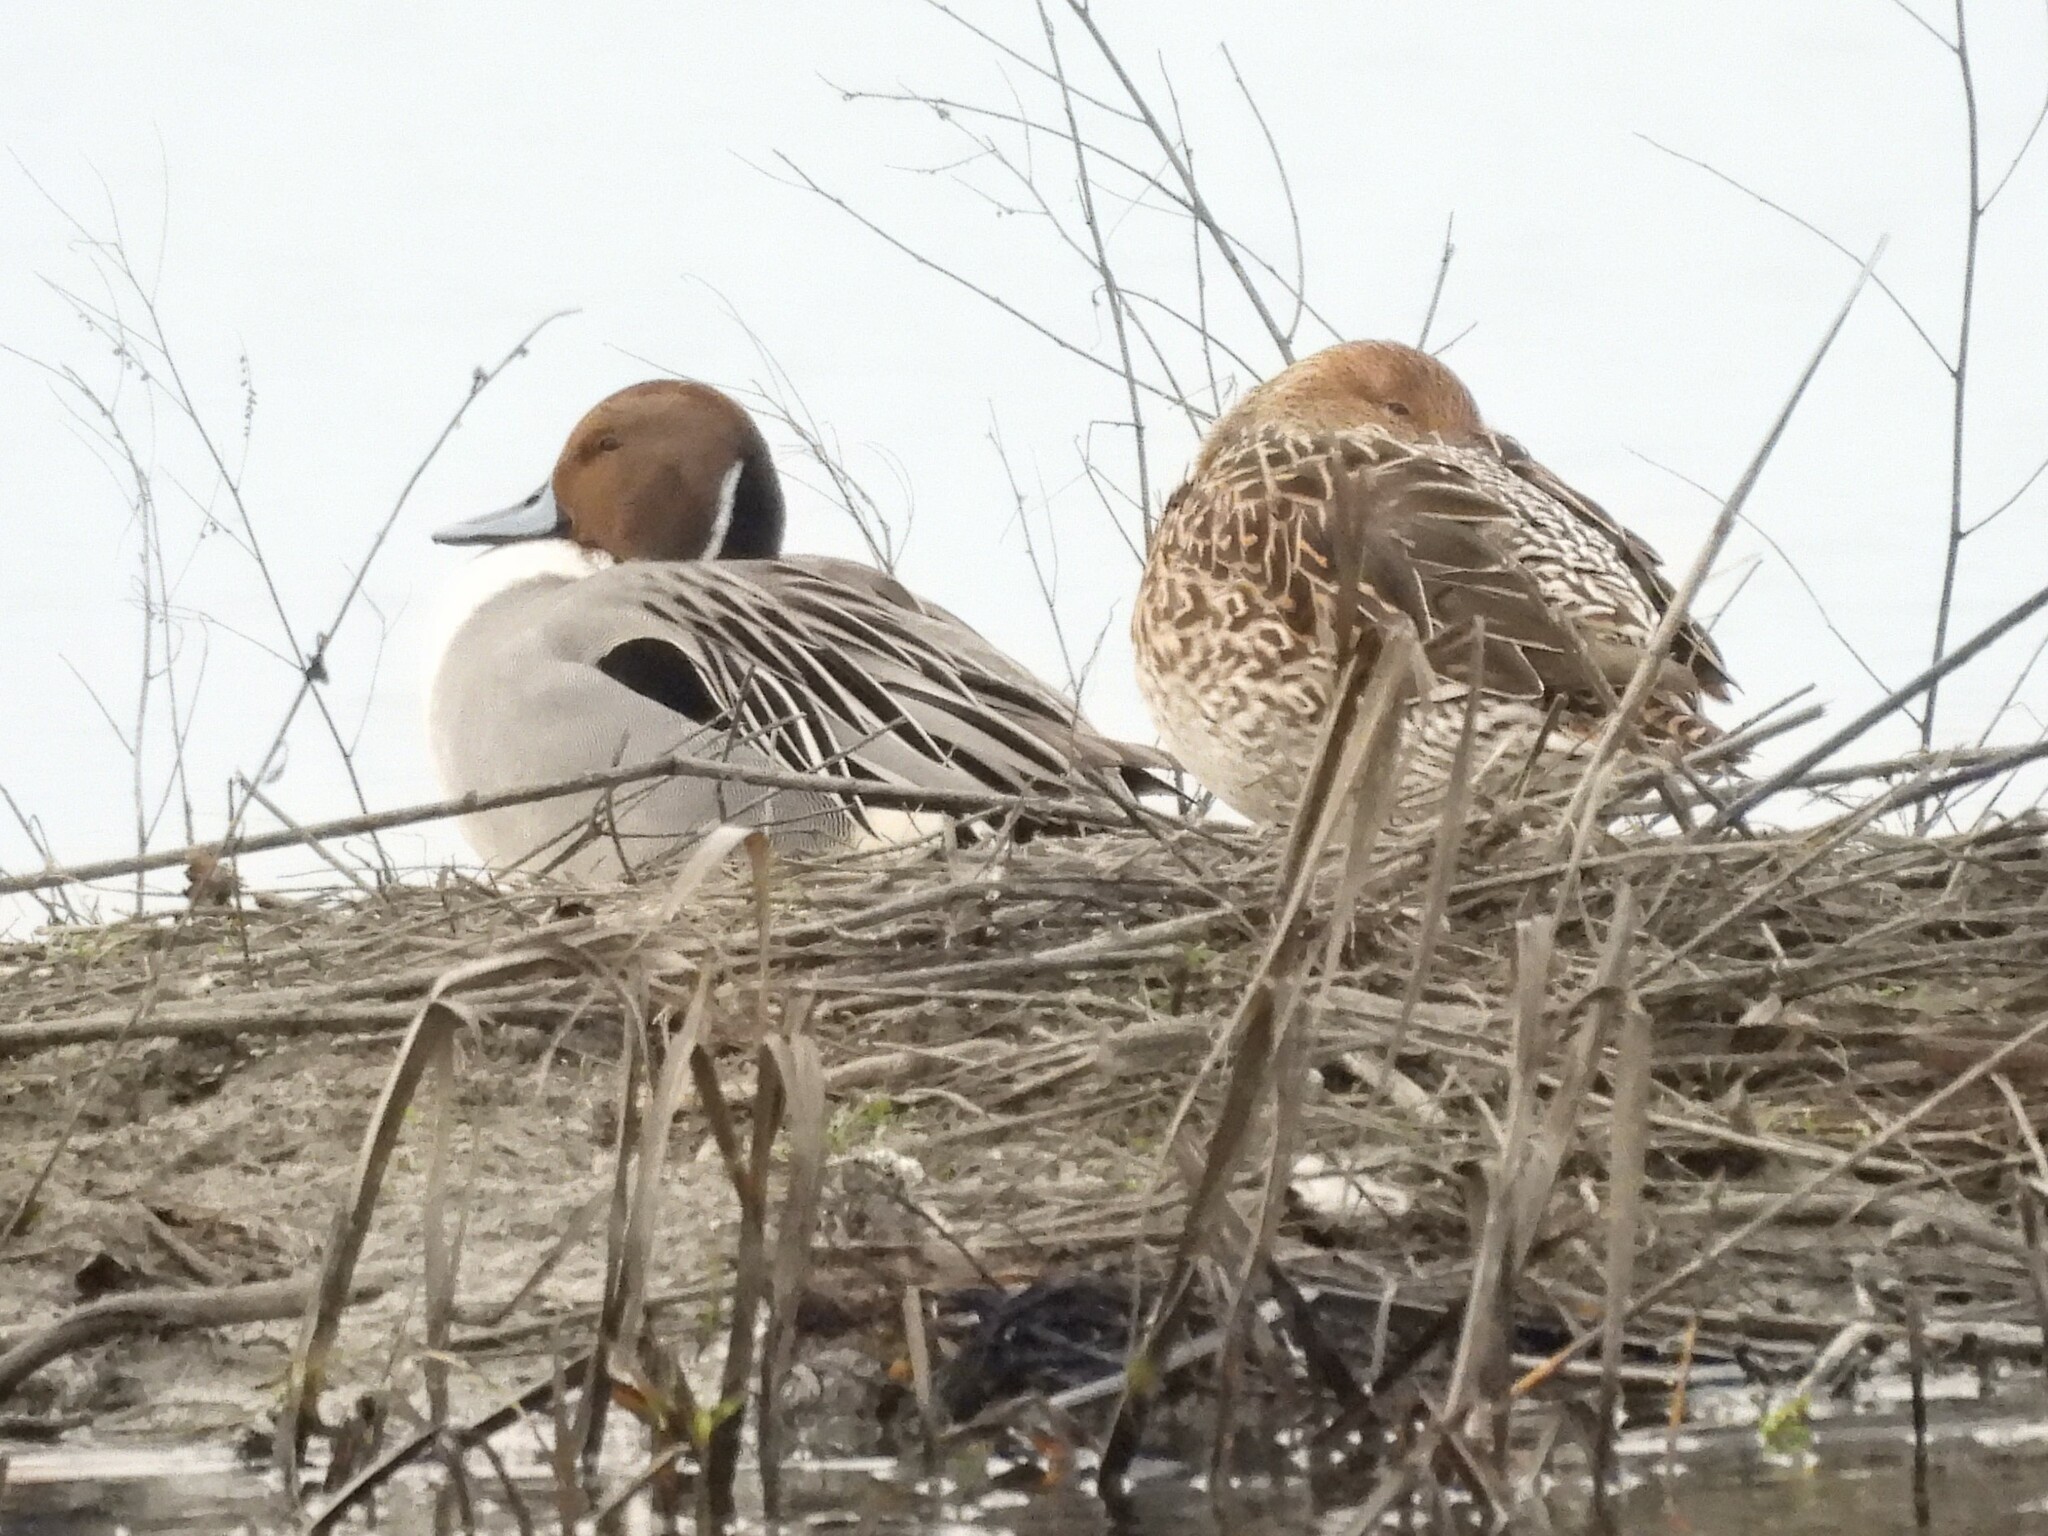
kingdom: Animalia
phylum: Chordata
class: Aves
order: Anseriformes
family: Anatidae
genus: Anas
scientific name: Anas acuta
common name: Northern pintail
